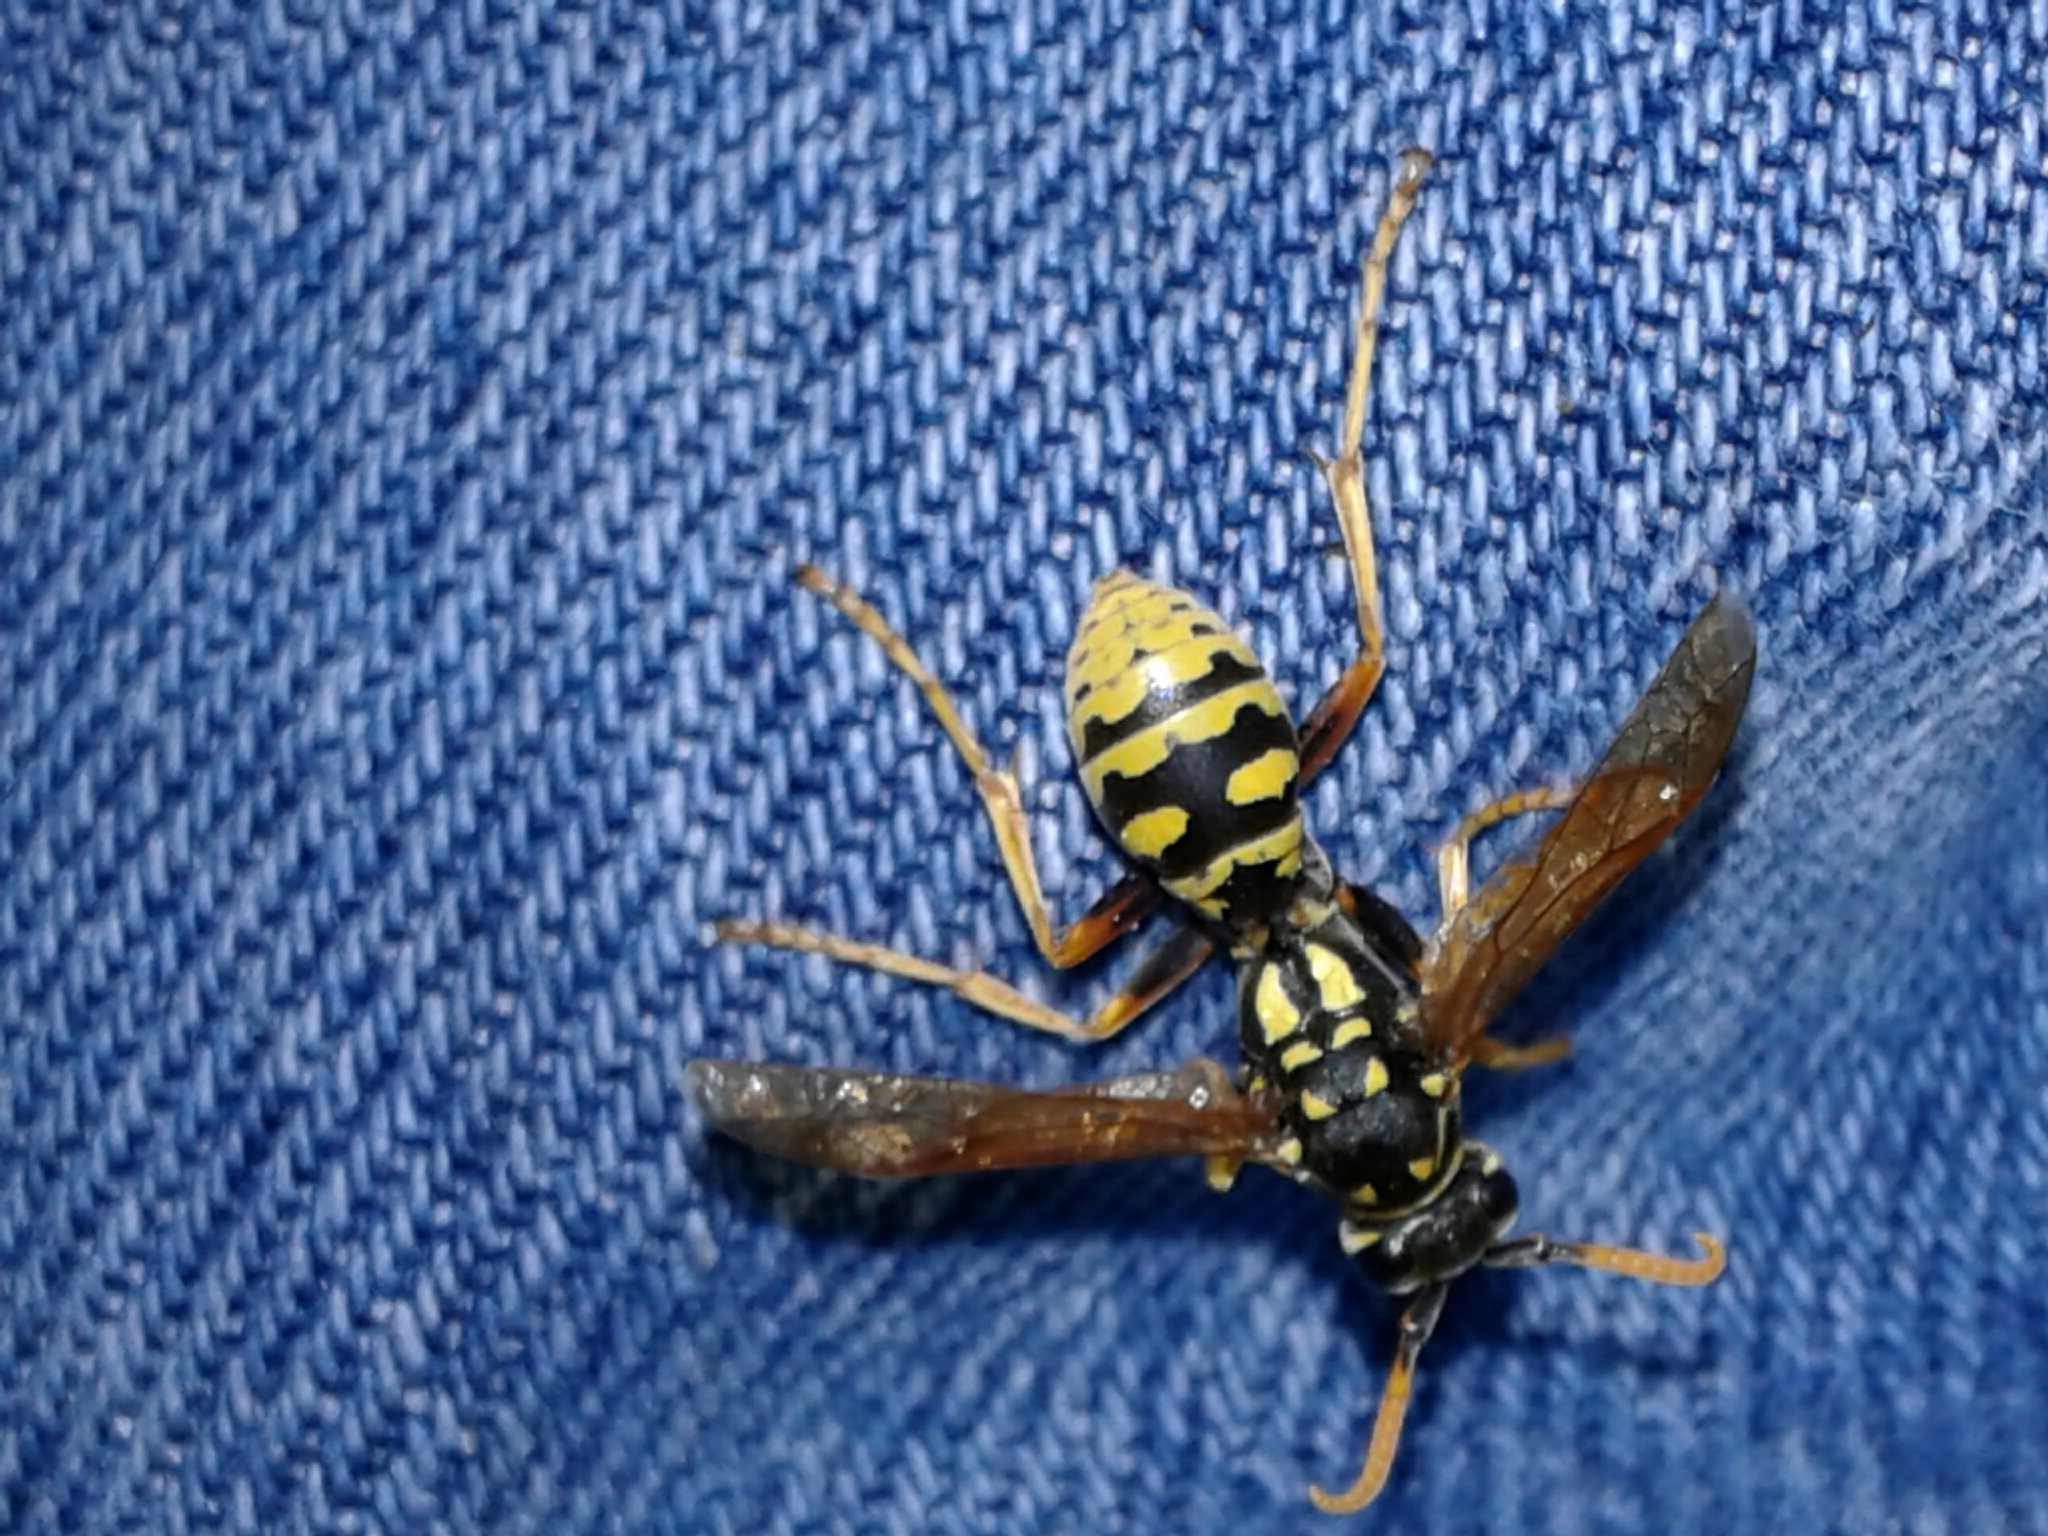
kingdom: Animalia
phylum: Arthropoda
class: Insecta
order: Hymenoptera
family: Eumenidae
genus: Polistes
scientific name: Polistes dominula
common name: Paper wasp
